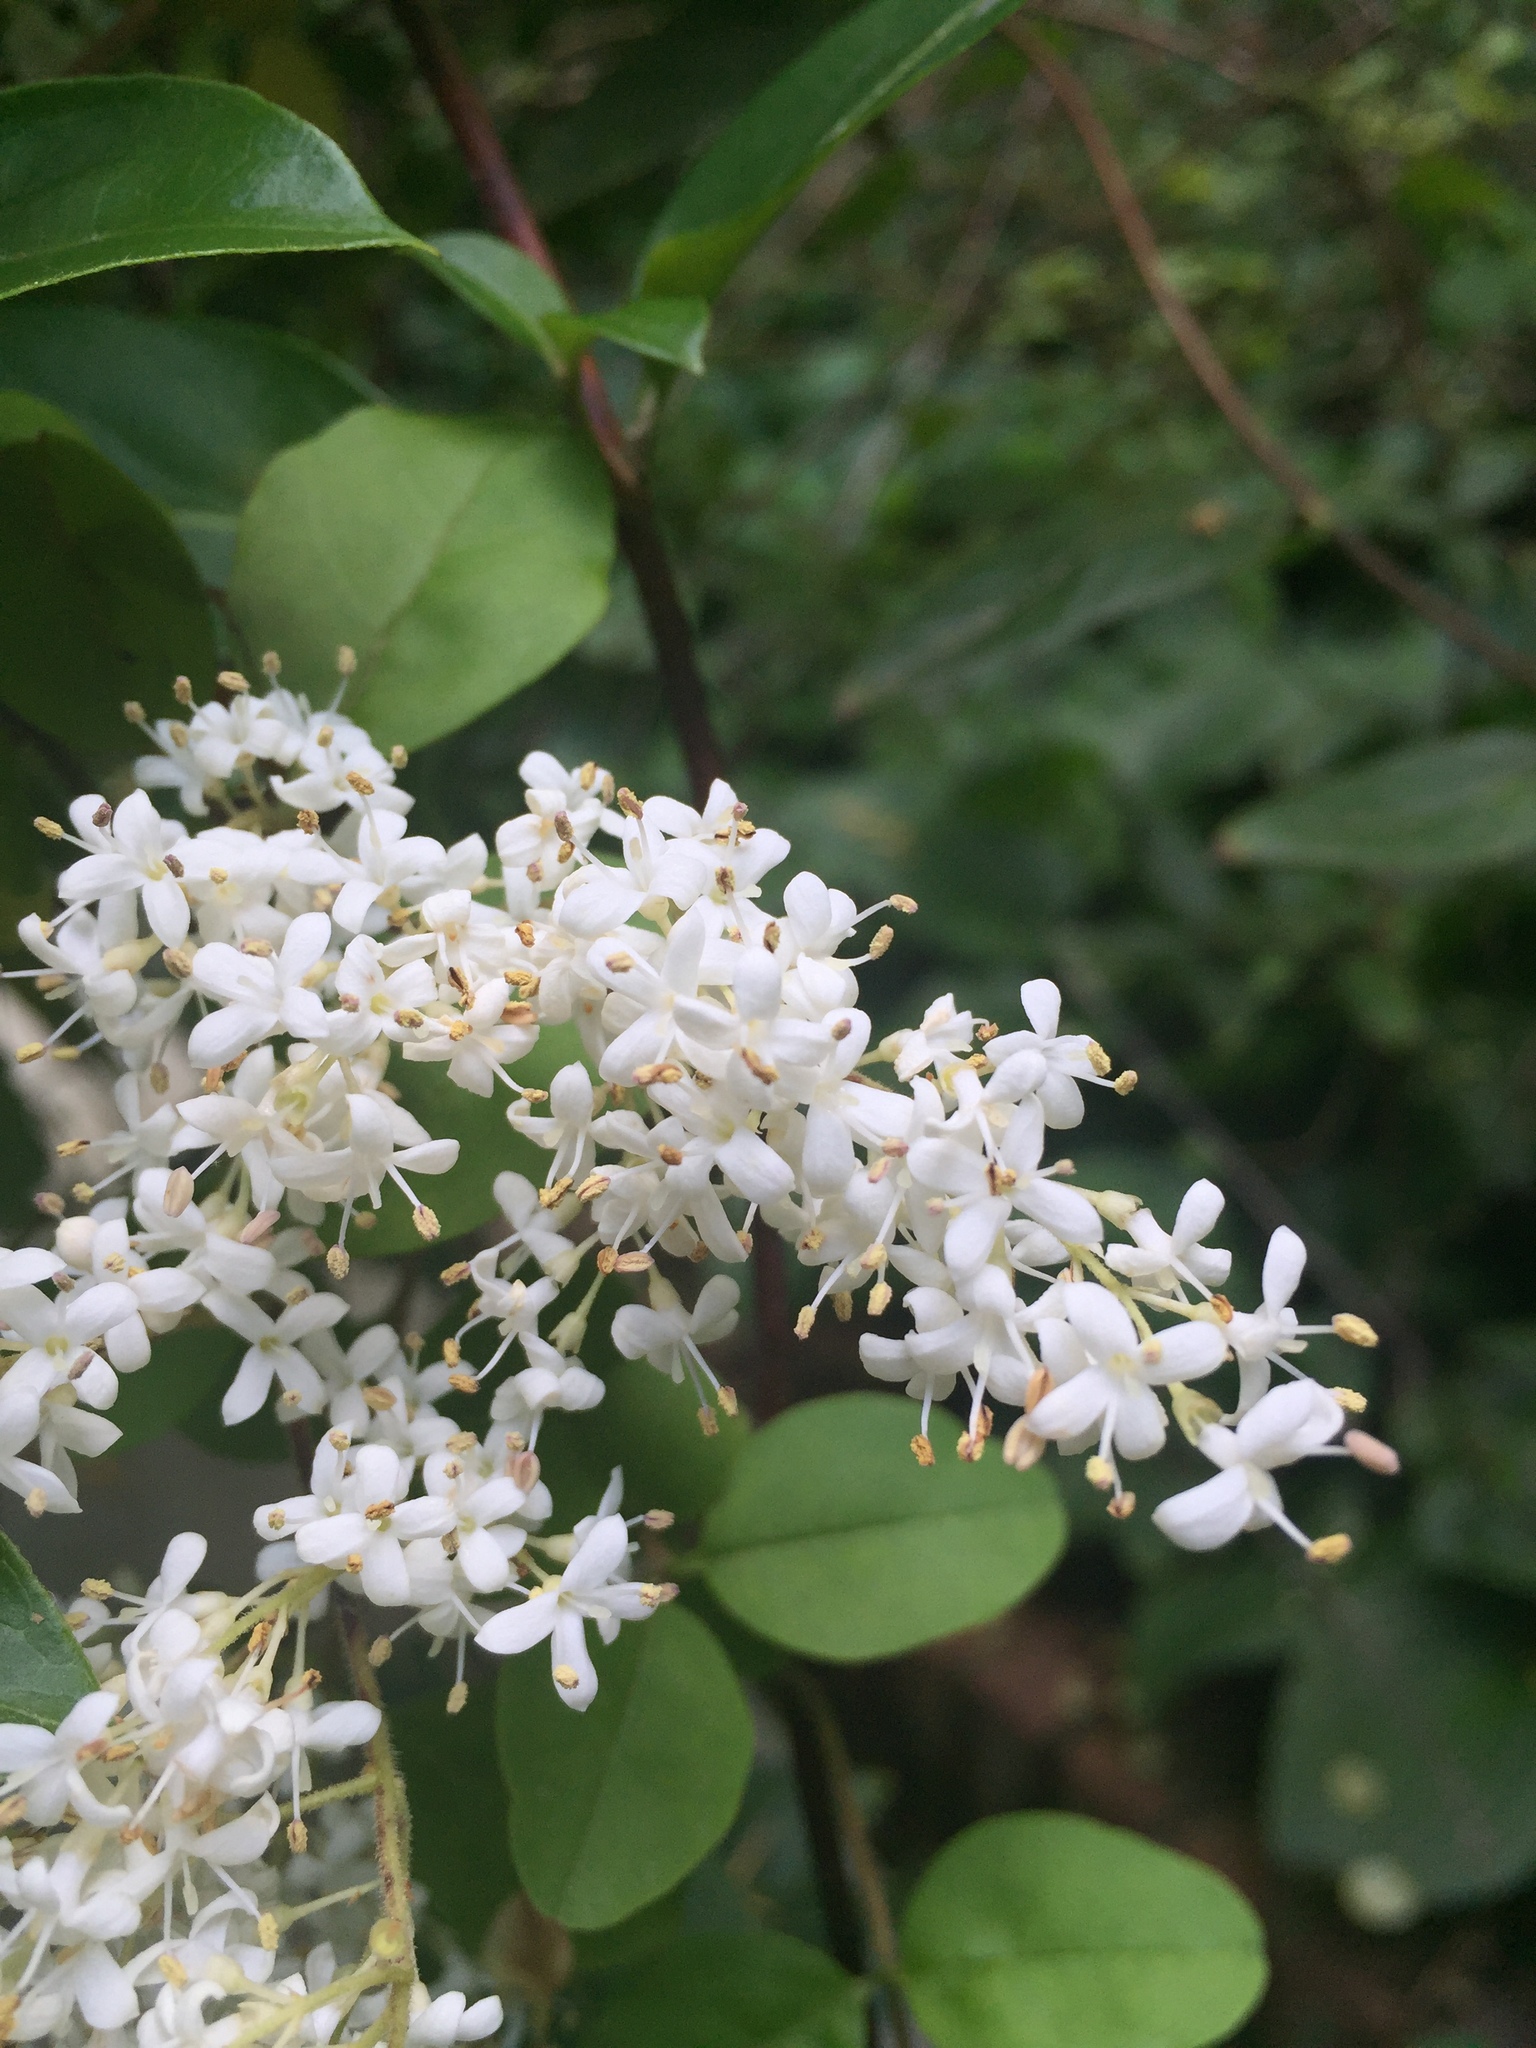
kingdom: Plantae
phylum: Tracheophyta
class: Magnoliopsida
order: Lamiales
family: Oleaceae
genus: Ligustrum
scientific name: Ligustrum sinense
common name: Chinese privet
